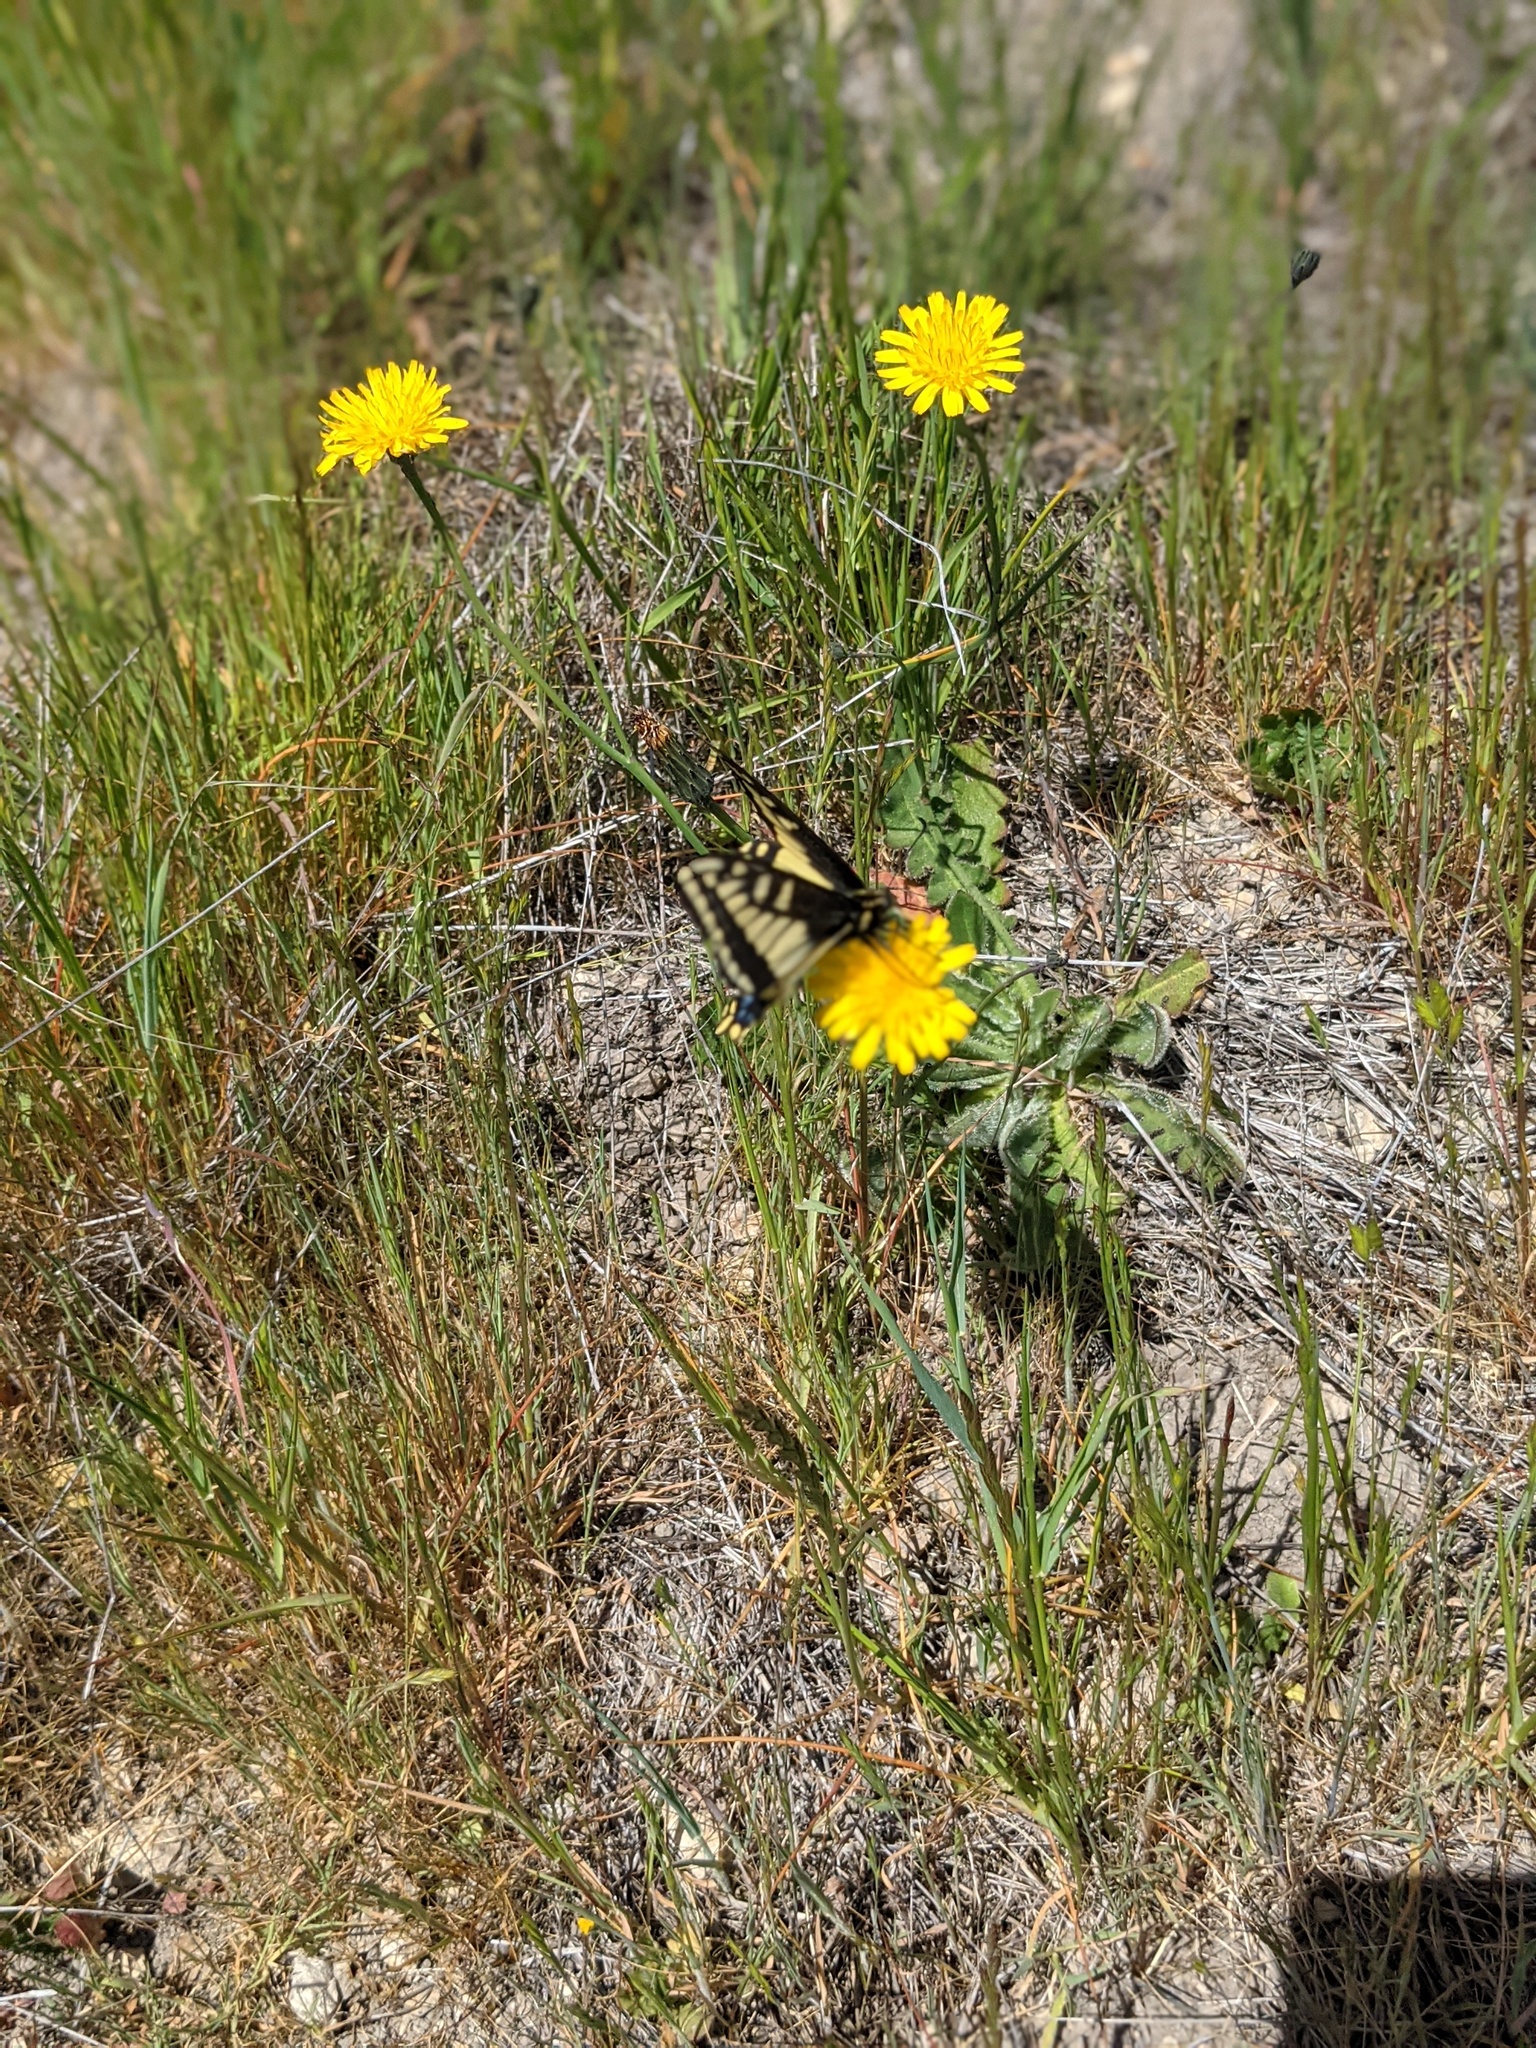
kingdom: Animalia
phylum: Arthropoda
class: Insecta
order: Lepidoptera
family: Papilionidae
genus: Papilio
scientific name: Papilio zelicaon
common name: Anise swallowtail
